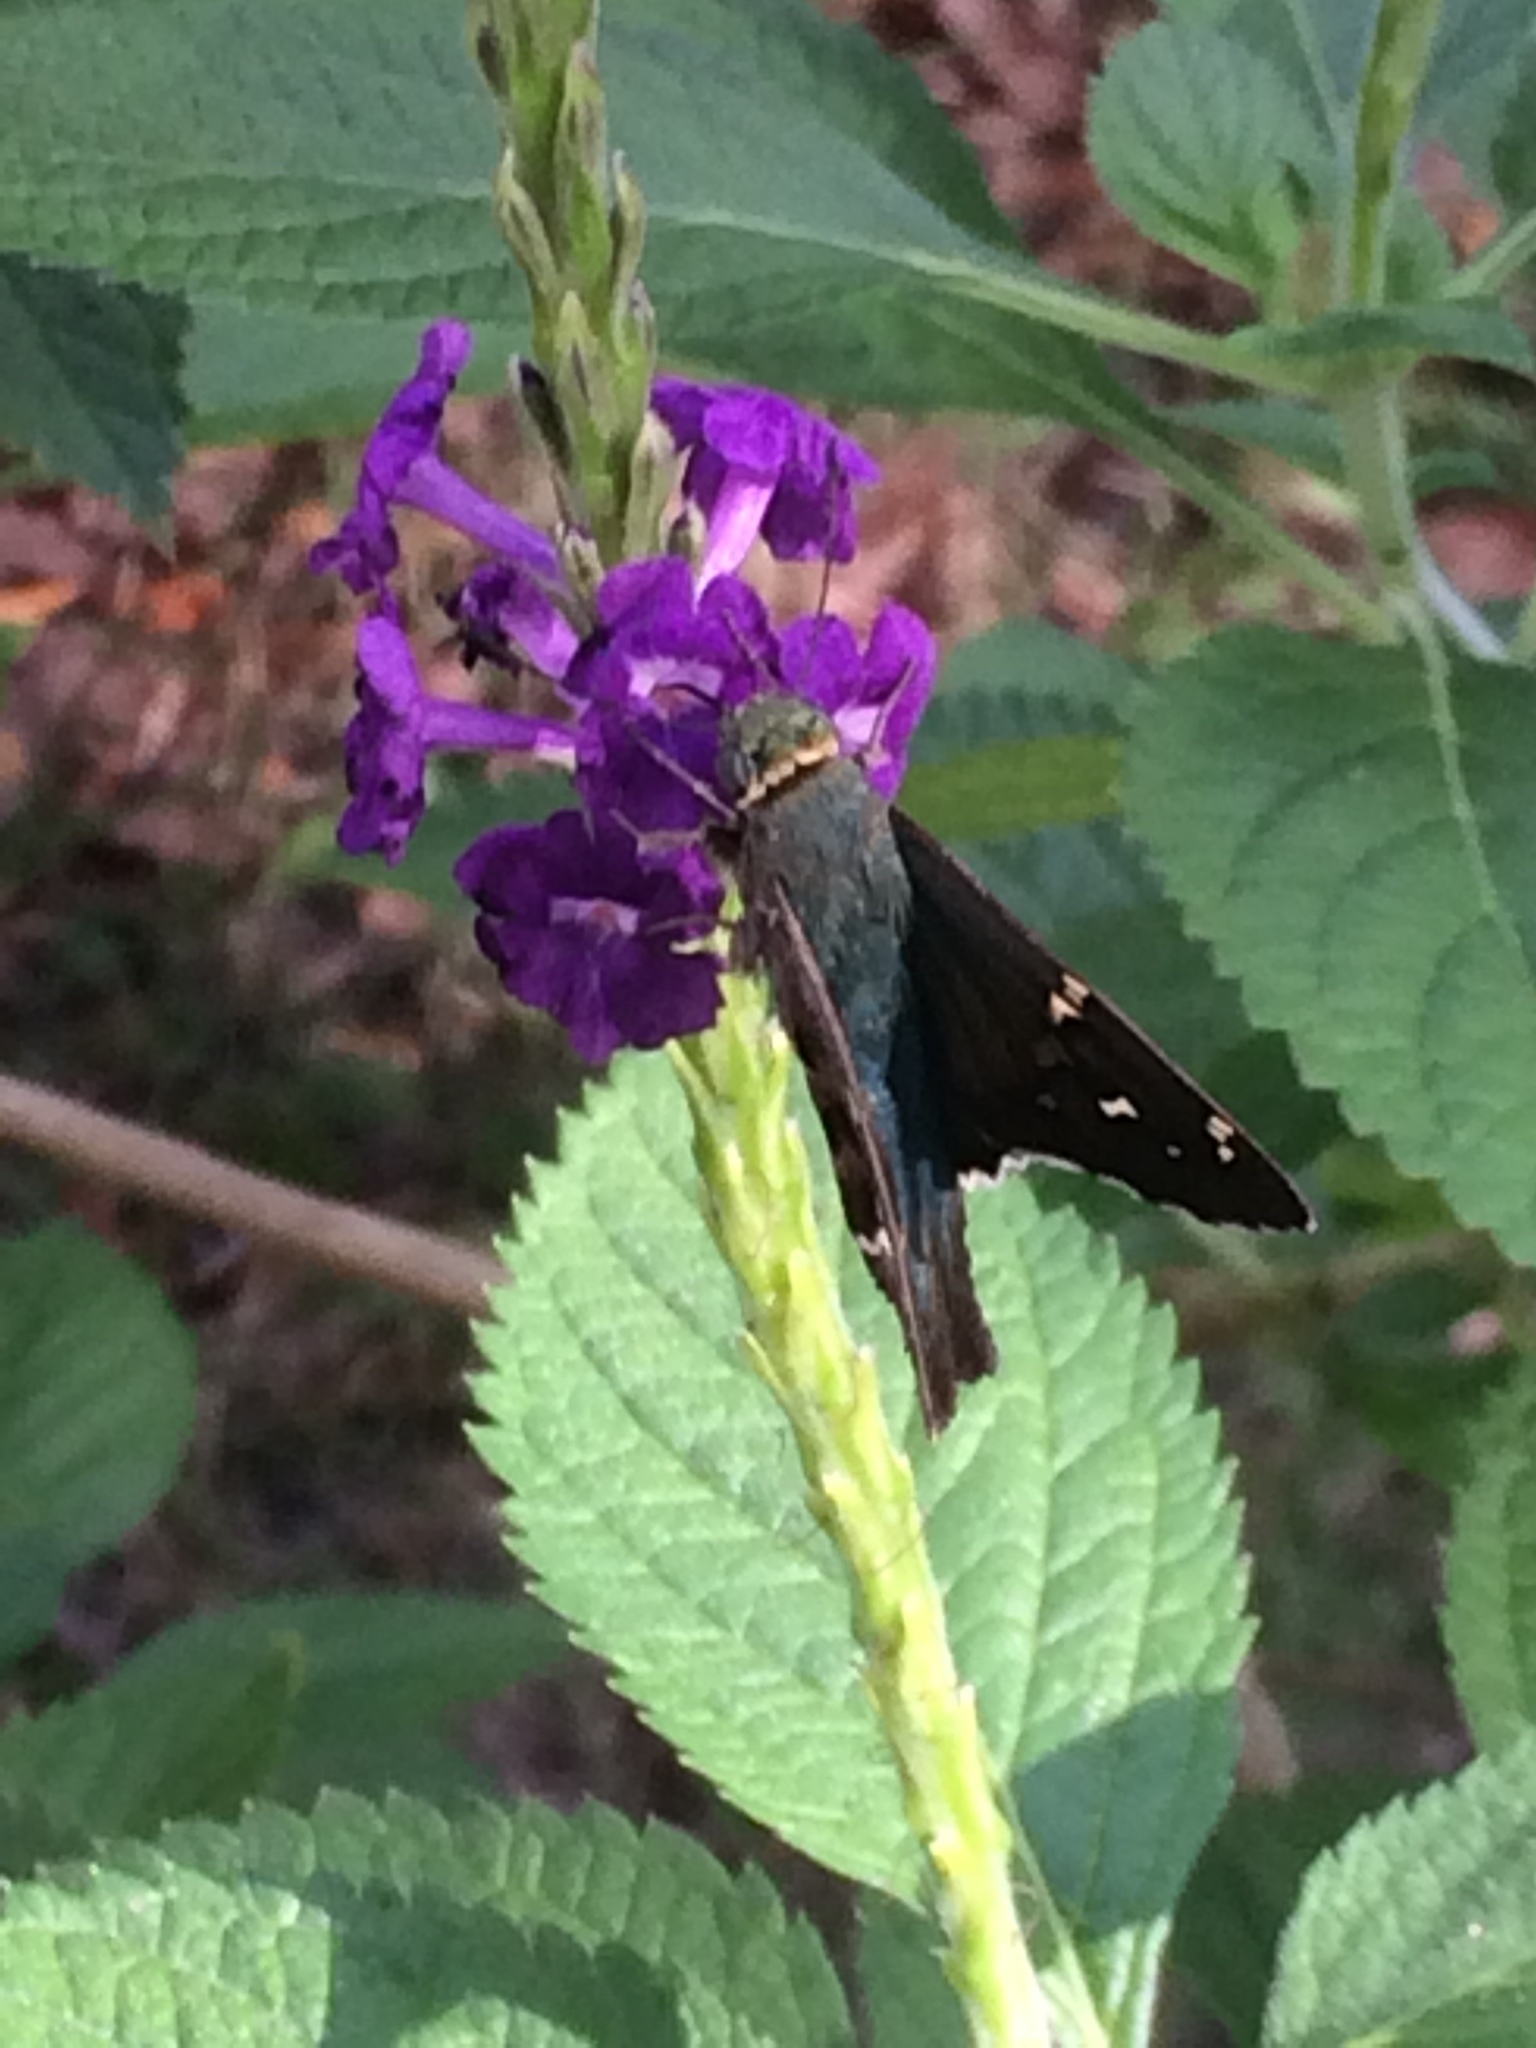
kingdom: Animalia
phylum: Arthropoda
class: Insecta
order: Lepidoptera
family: Hesperiidae
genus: Urbanus
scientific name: Urbanus proteus
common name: Long-tailed skipper
